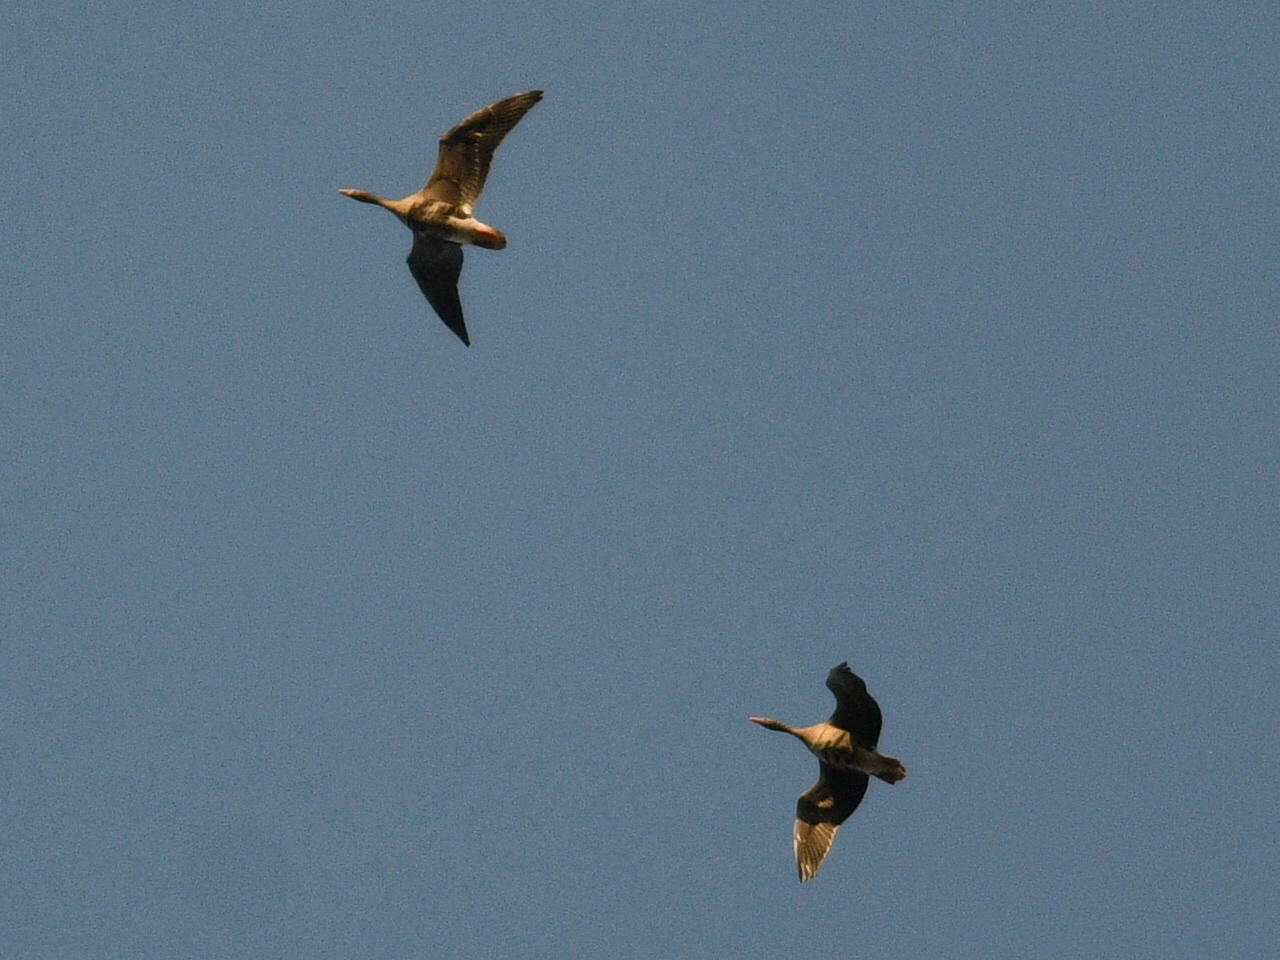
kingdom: Animalia
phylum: Chordata
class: Aves
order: Anseriformes
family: Anatidae
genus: Anser
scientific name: Anser albifrons
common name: Greater white-fronted goose
